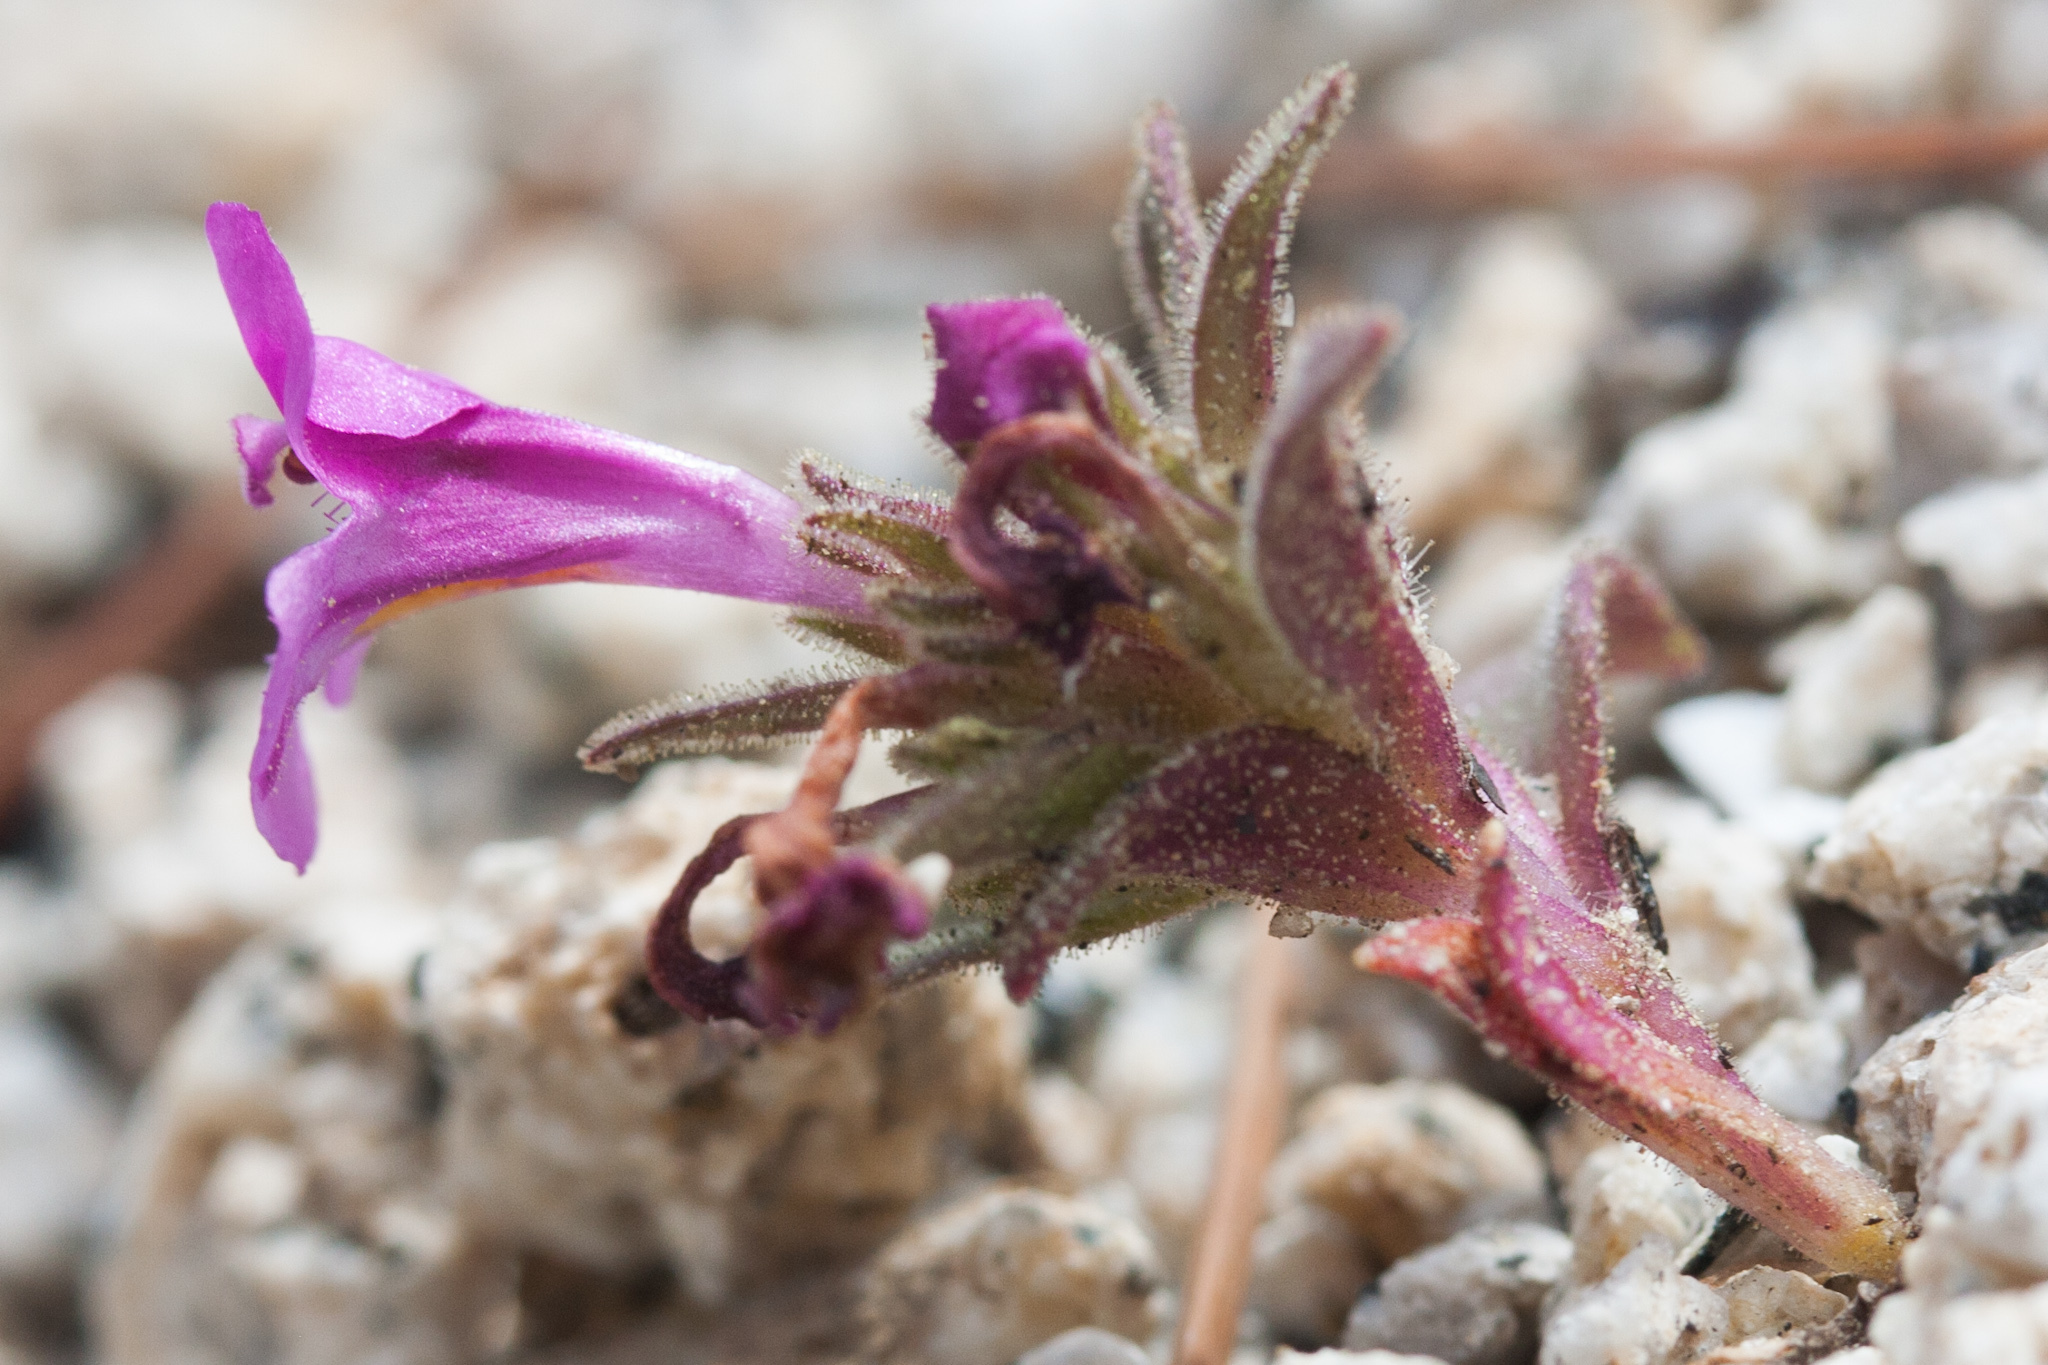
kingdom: Plantae
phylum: Tracheophyta
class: Magnoliopsida
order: Lamiales
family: Phrymaceae
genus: Diplacus
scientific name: Diplacus nanus
